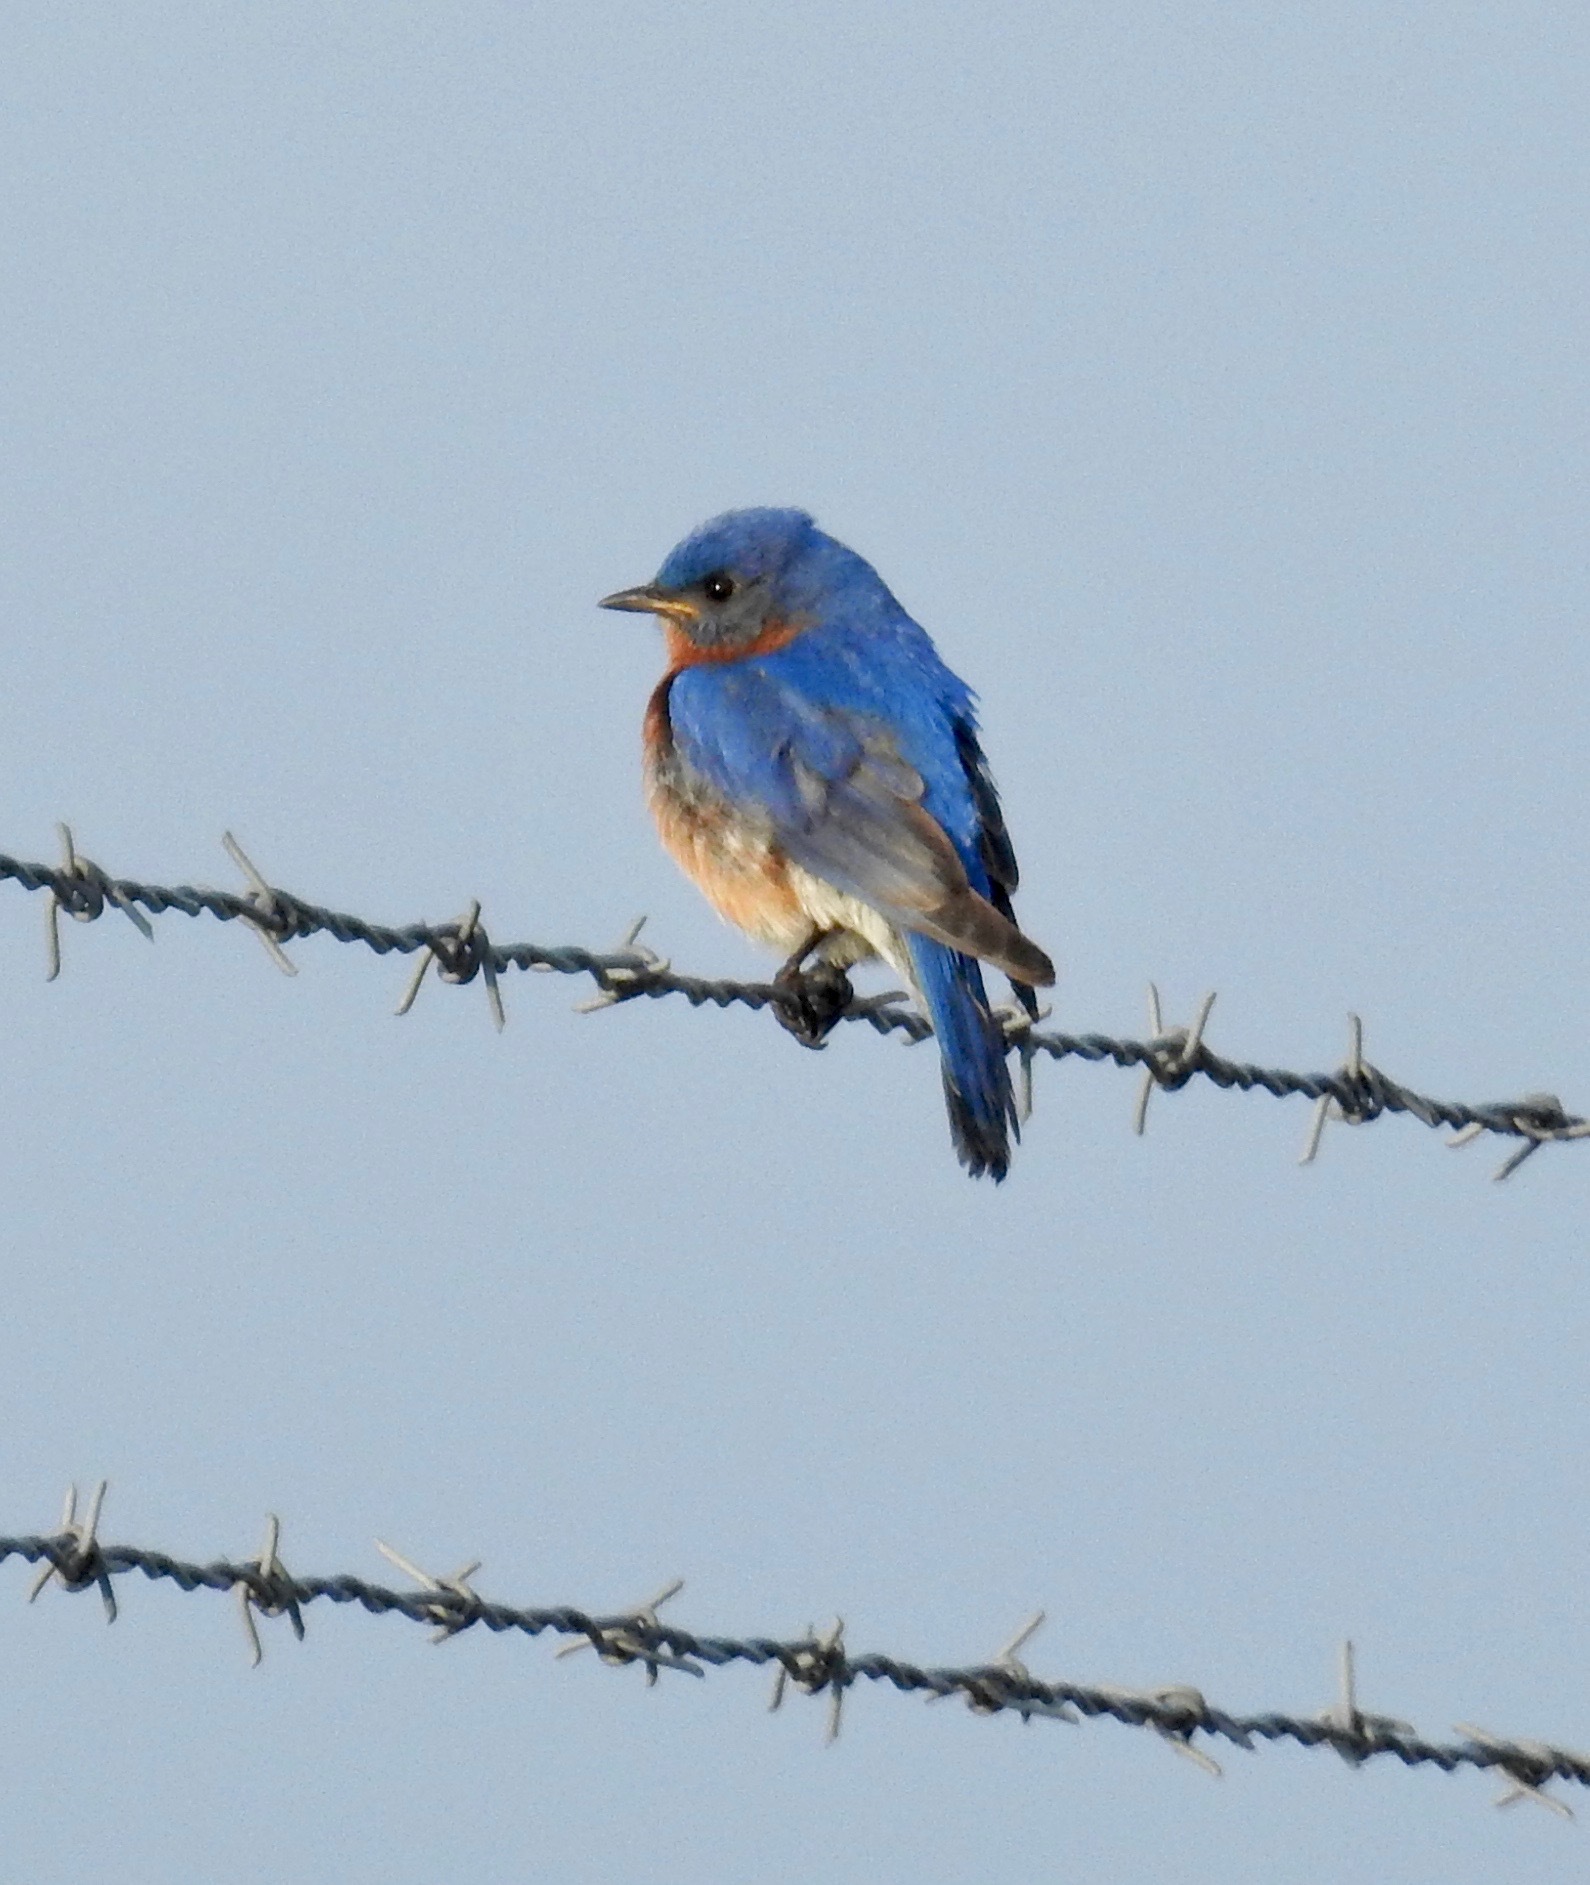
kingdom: Animalia
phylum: Chordata
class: Aves
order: Passeriformes
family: Turdidae
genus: Sialia
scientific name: Sialia sialis
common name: Eastern bluebird
